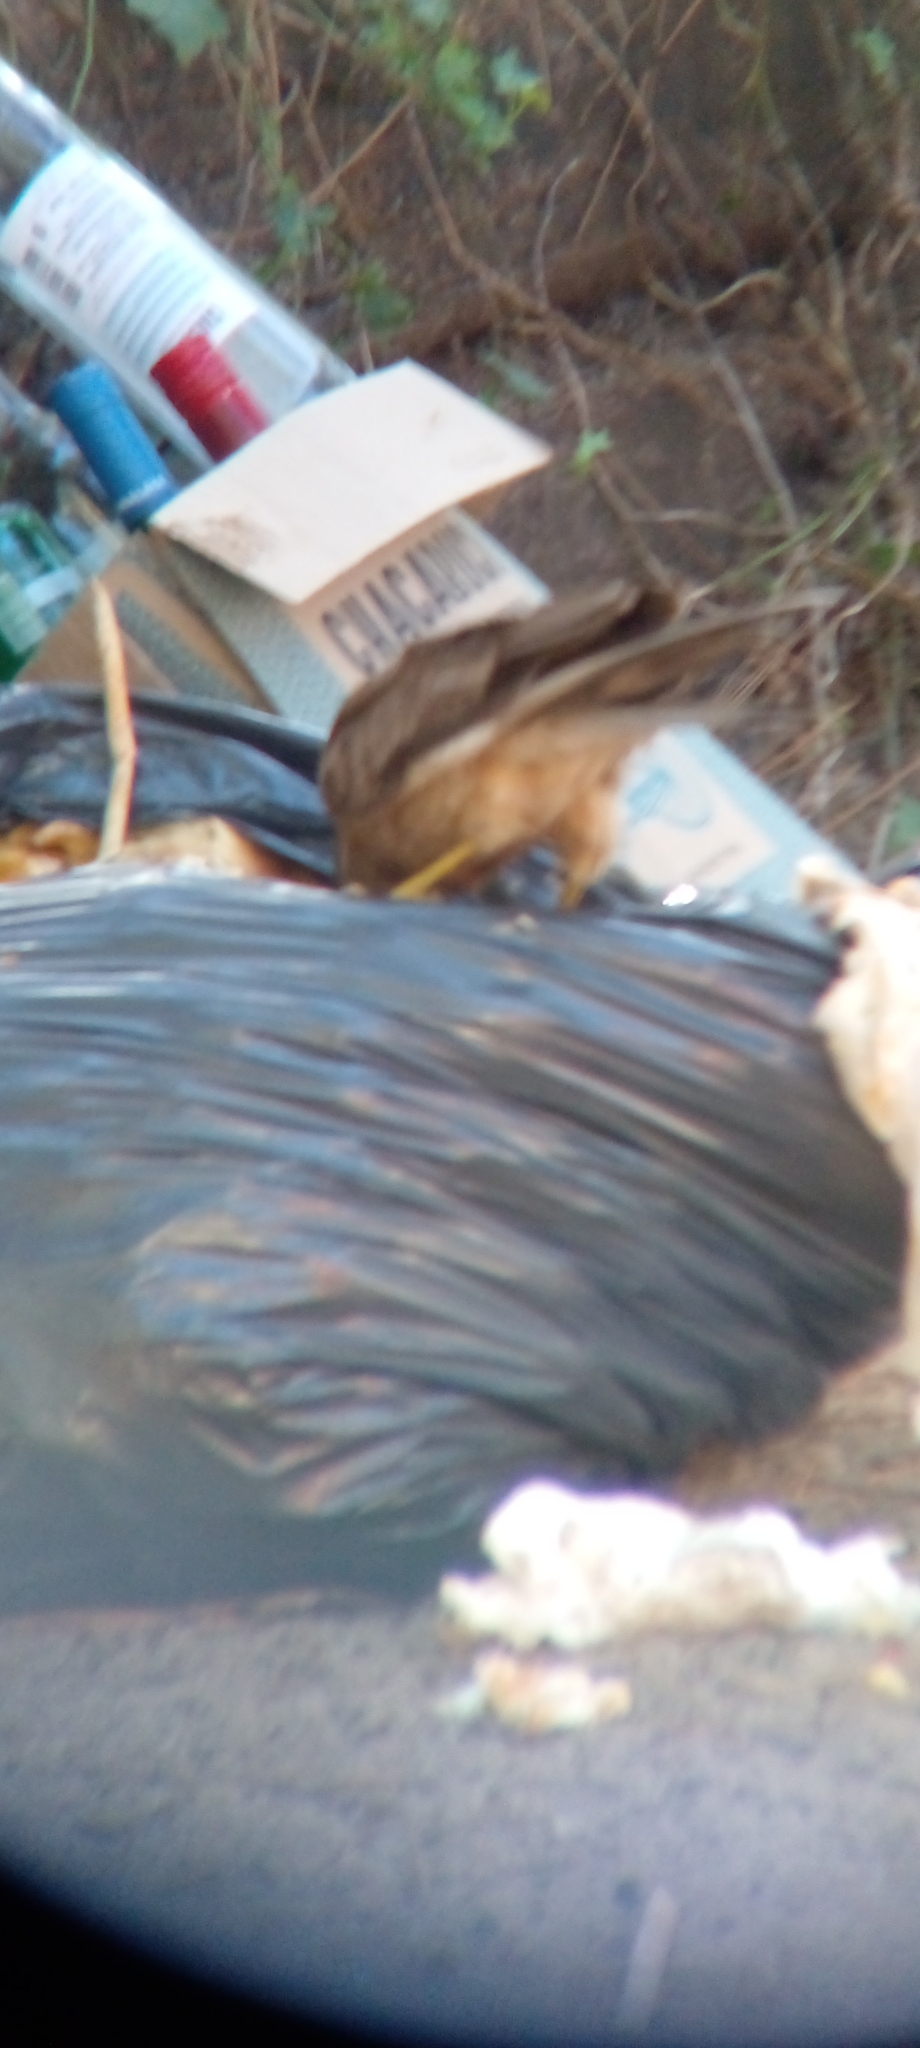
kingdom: Animalia
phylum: Chordata
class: Aves
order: Falconiformes
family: Falconidae
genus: Daptrius
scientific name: Daptrius
